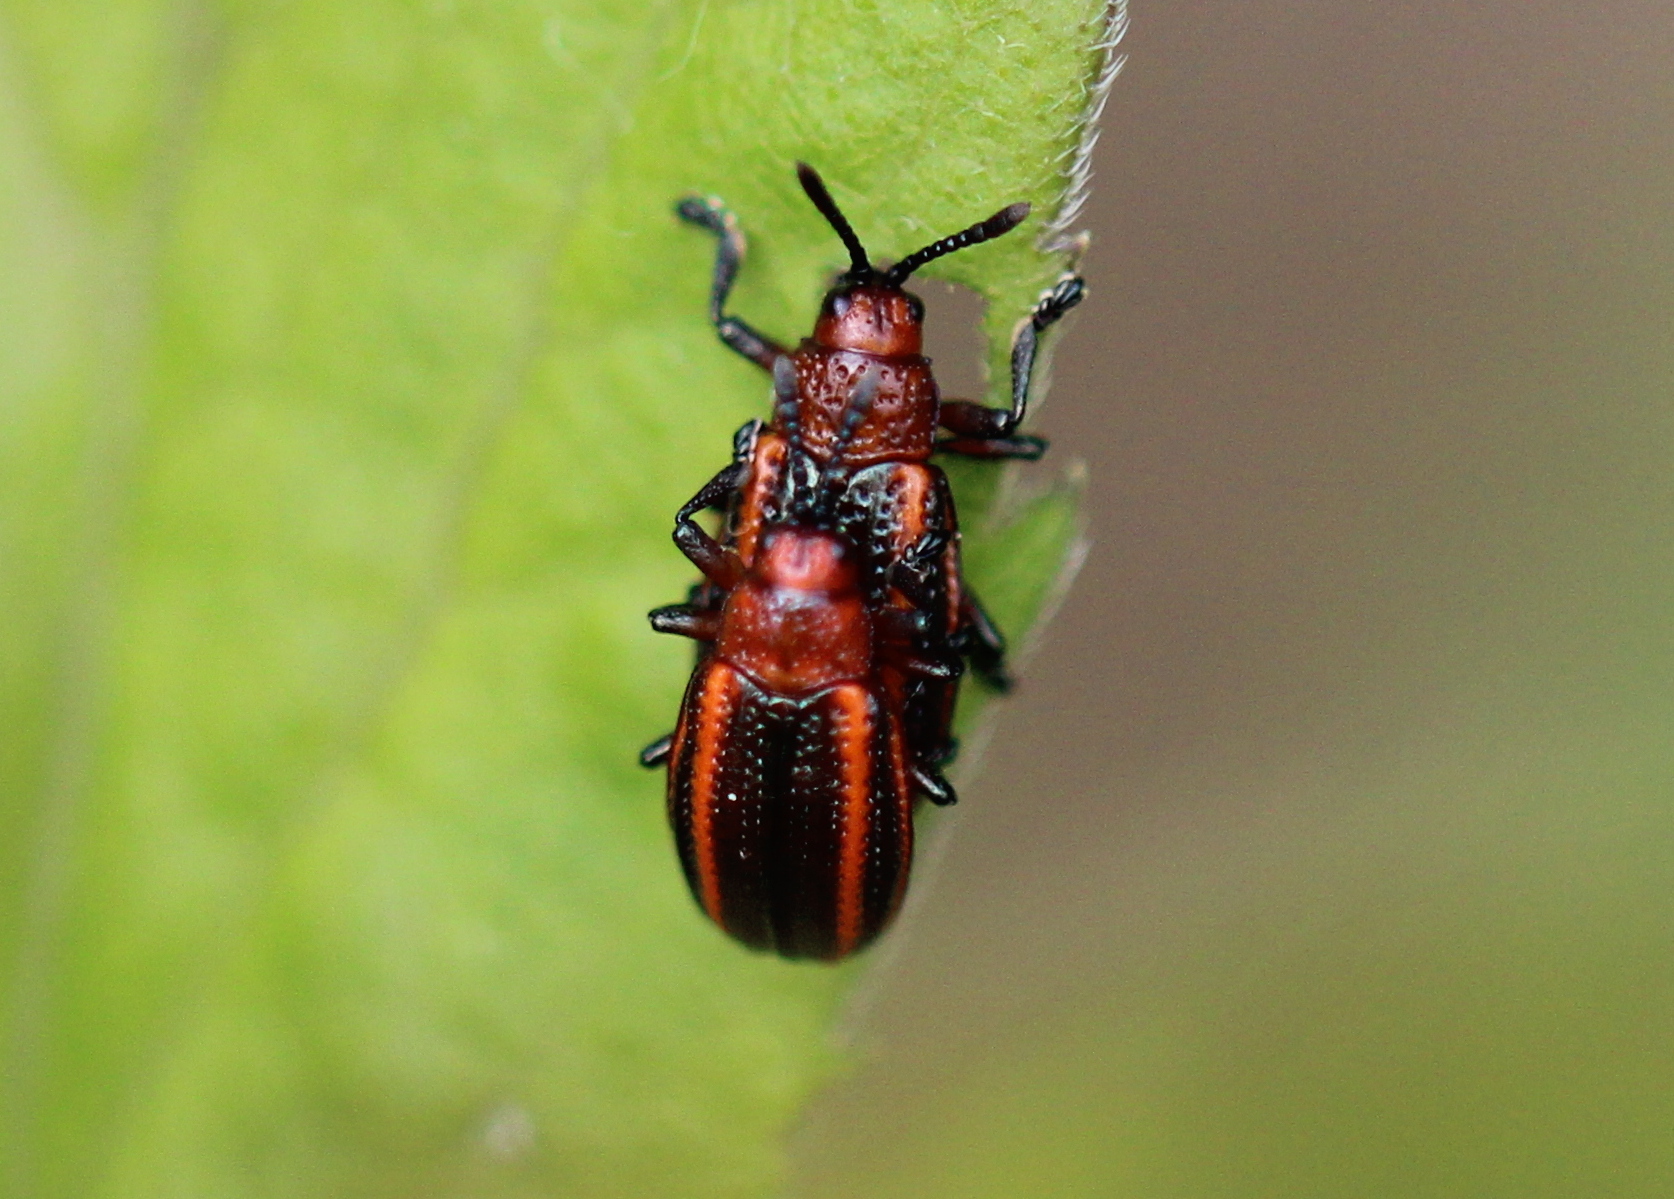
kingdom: Animalia
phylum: Arthropoda
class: Insecta
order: Coleoptera
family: Chrysomelidae
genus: Microrhopala
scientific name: Microrhopala vittata
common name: Goldenrod leaf miner beetle
